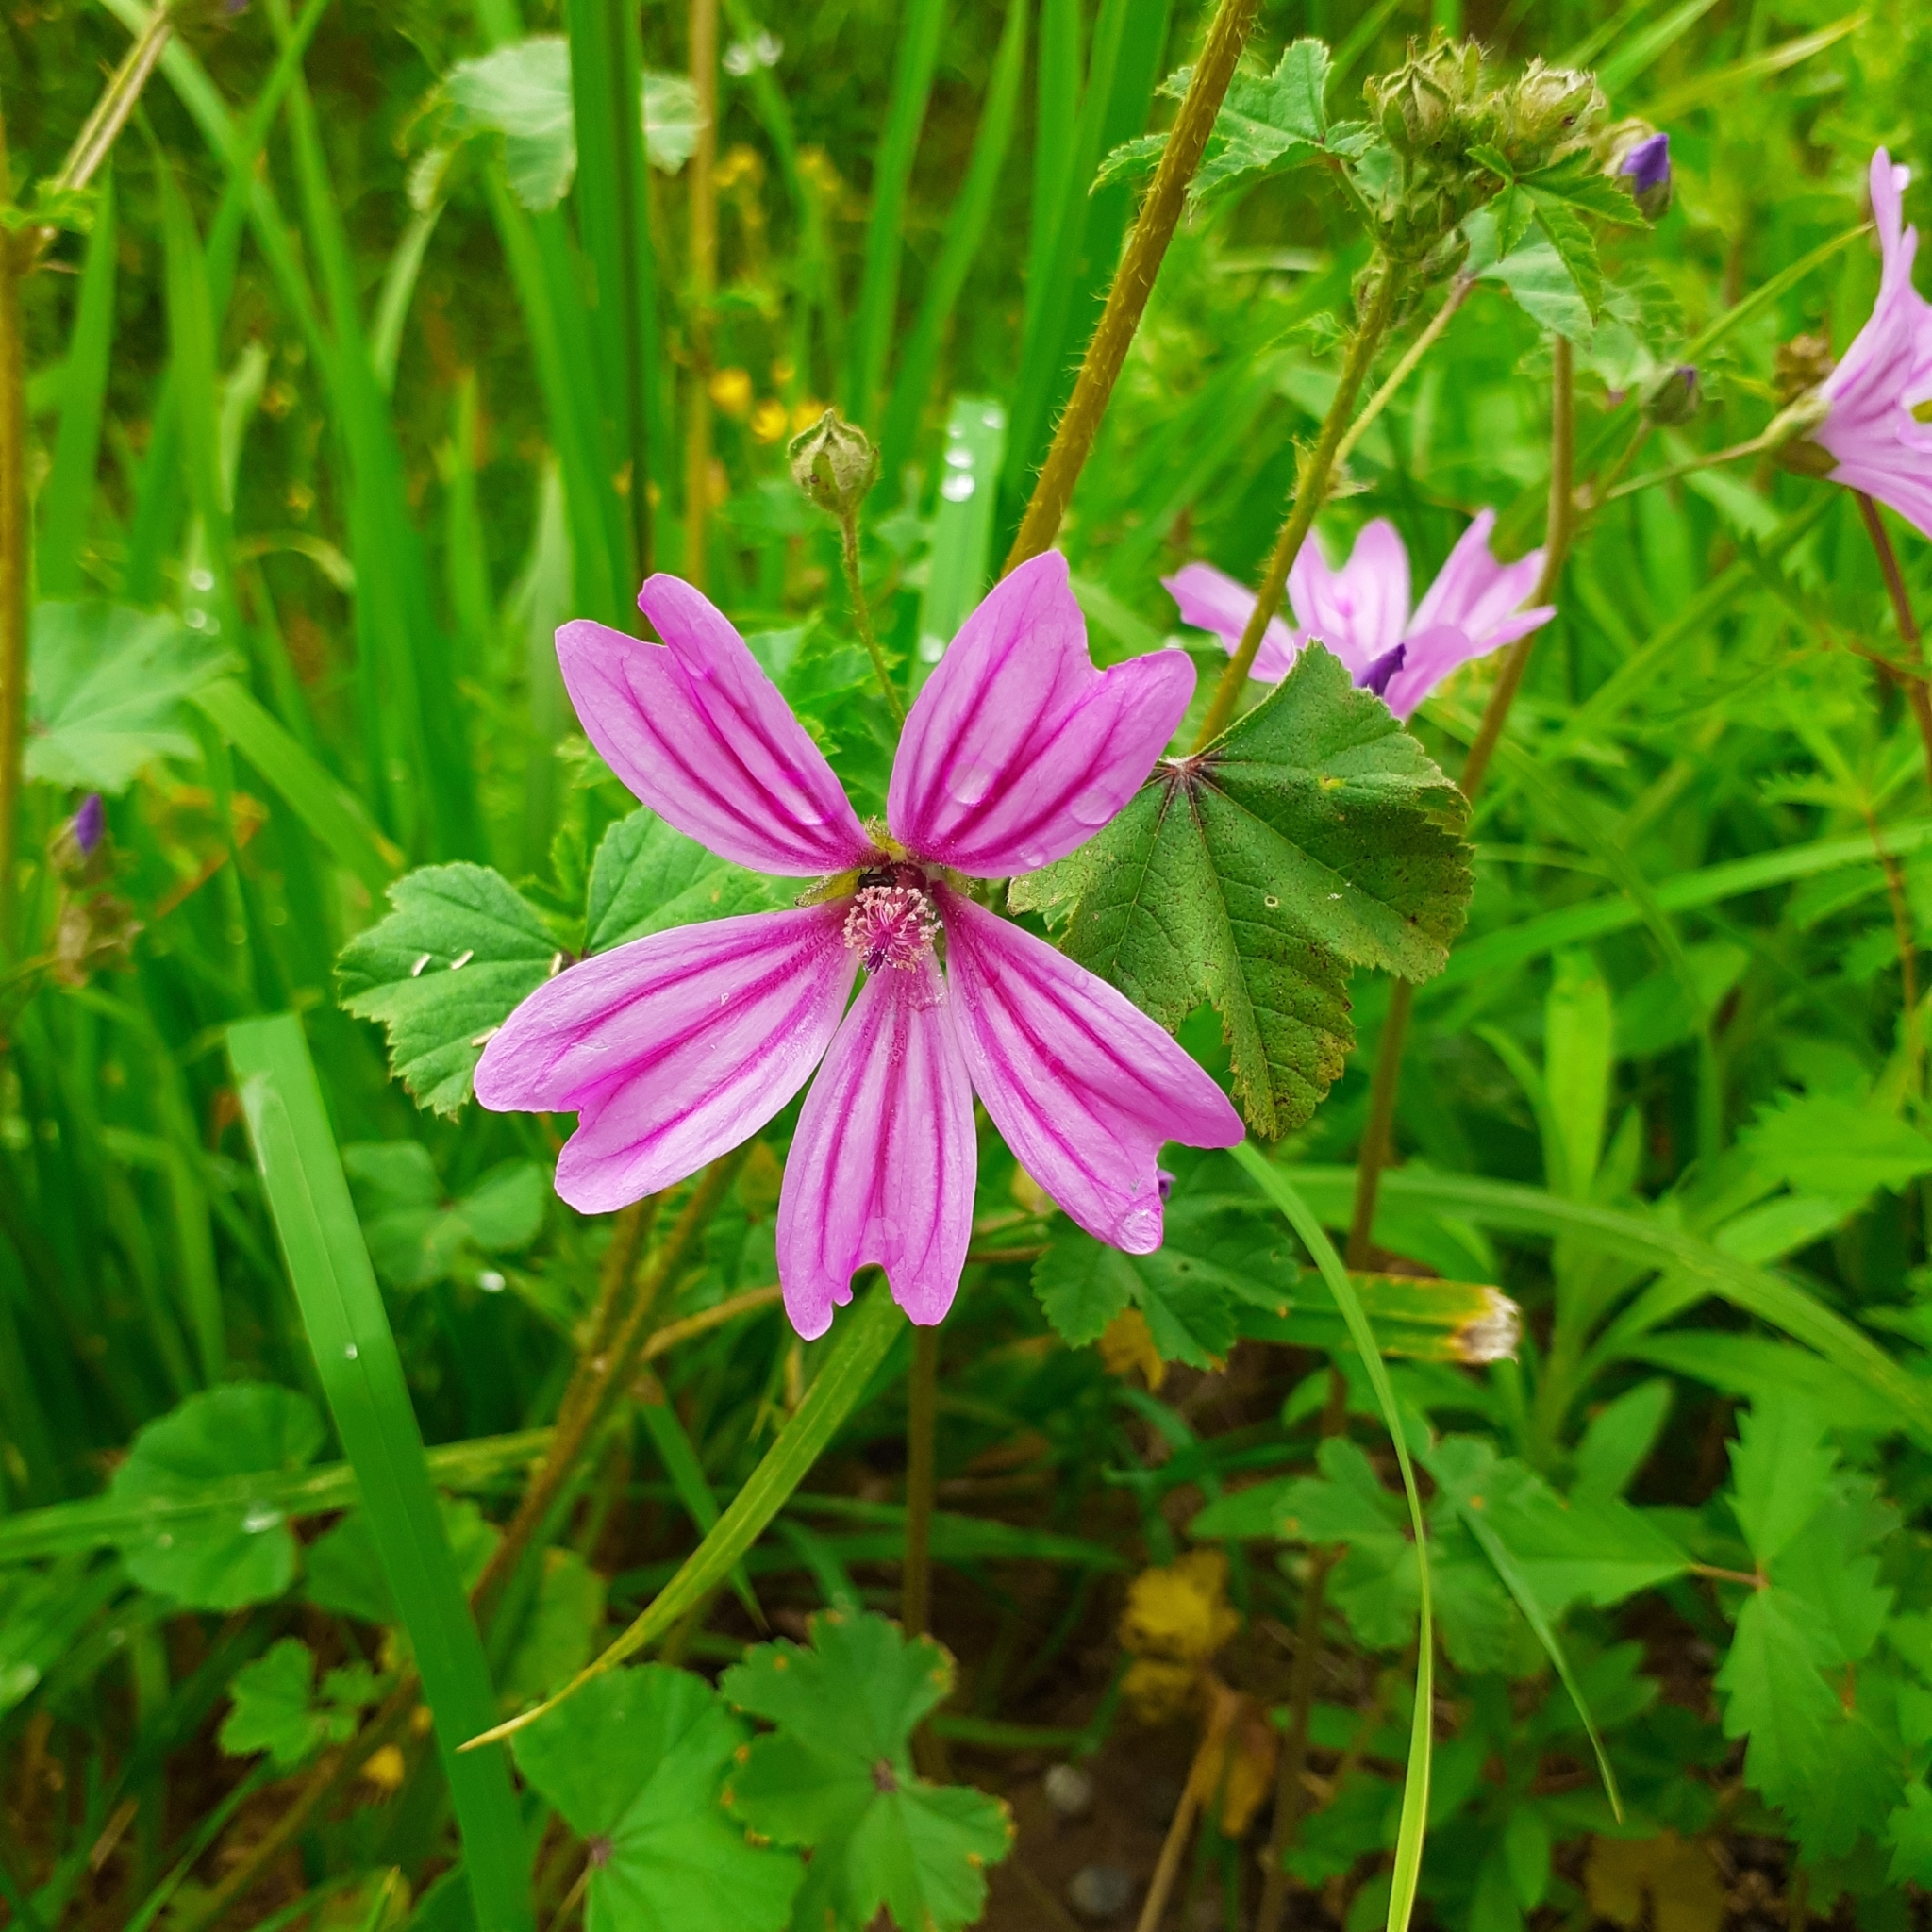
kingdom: Plantae
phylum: Tracheophyta
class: Magnoliopsida
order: Malvales
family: Malvaceae
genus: Malva
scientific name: Malva sylvestris
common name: Common mallow
